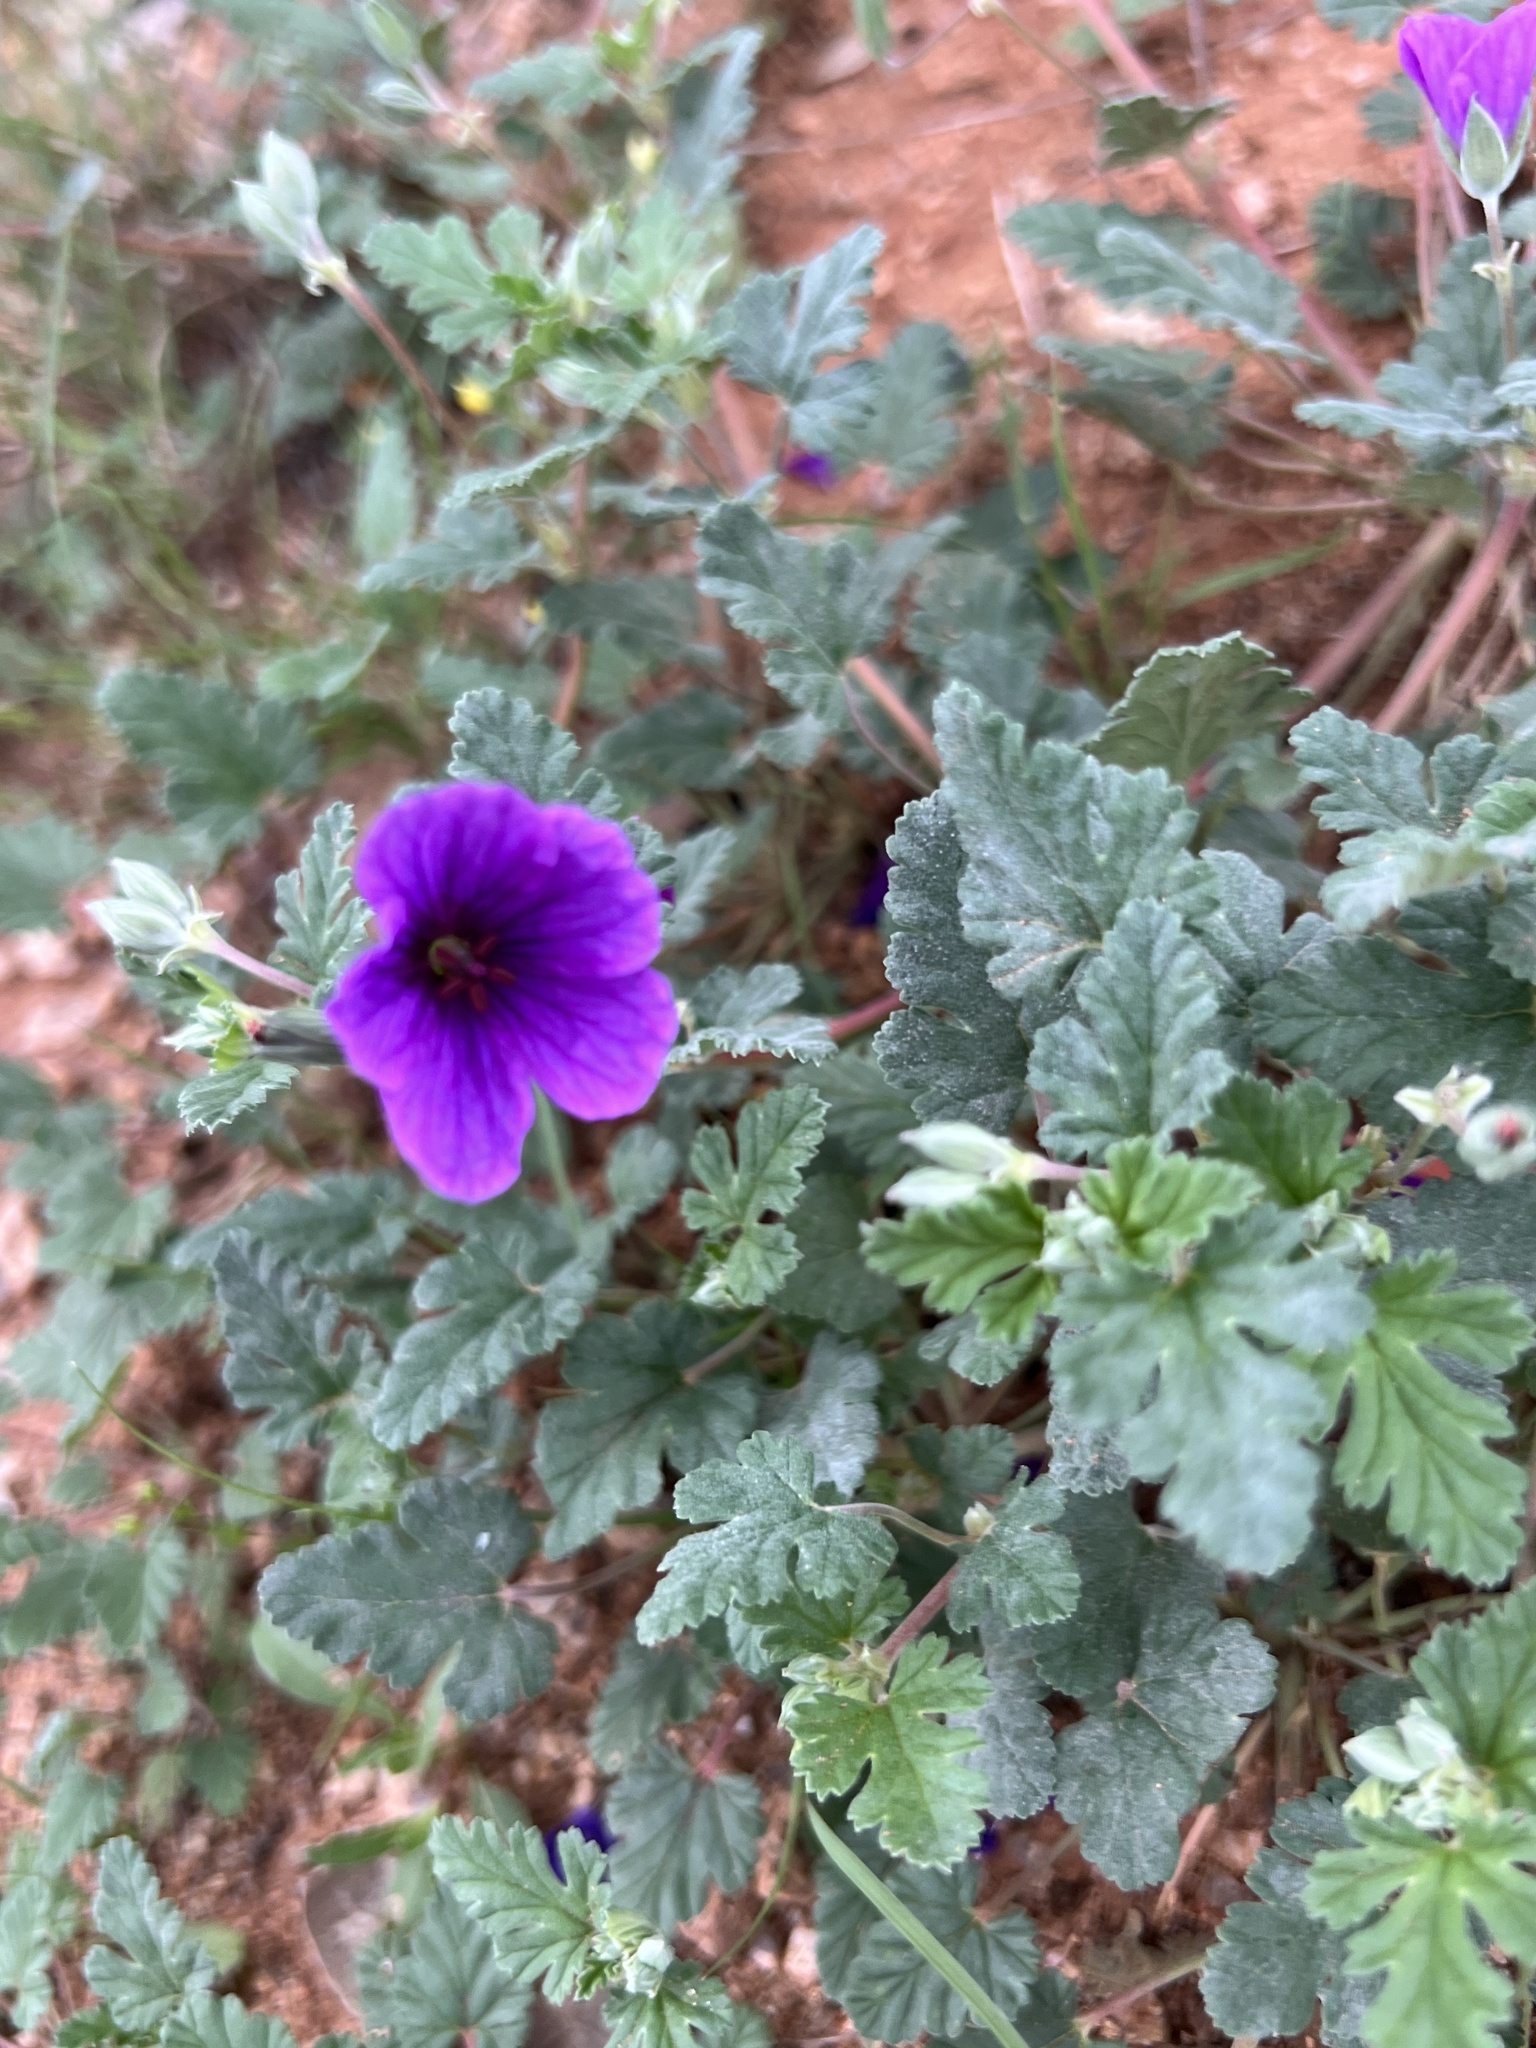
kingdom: Plantae
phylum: Tracheophyta
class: Magnoliopsida
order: Geraniales
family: Geraniaceae
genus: Erodium
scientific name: Erodium texanum
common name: Texas stork's-bill
